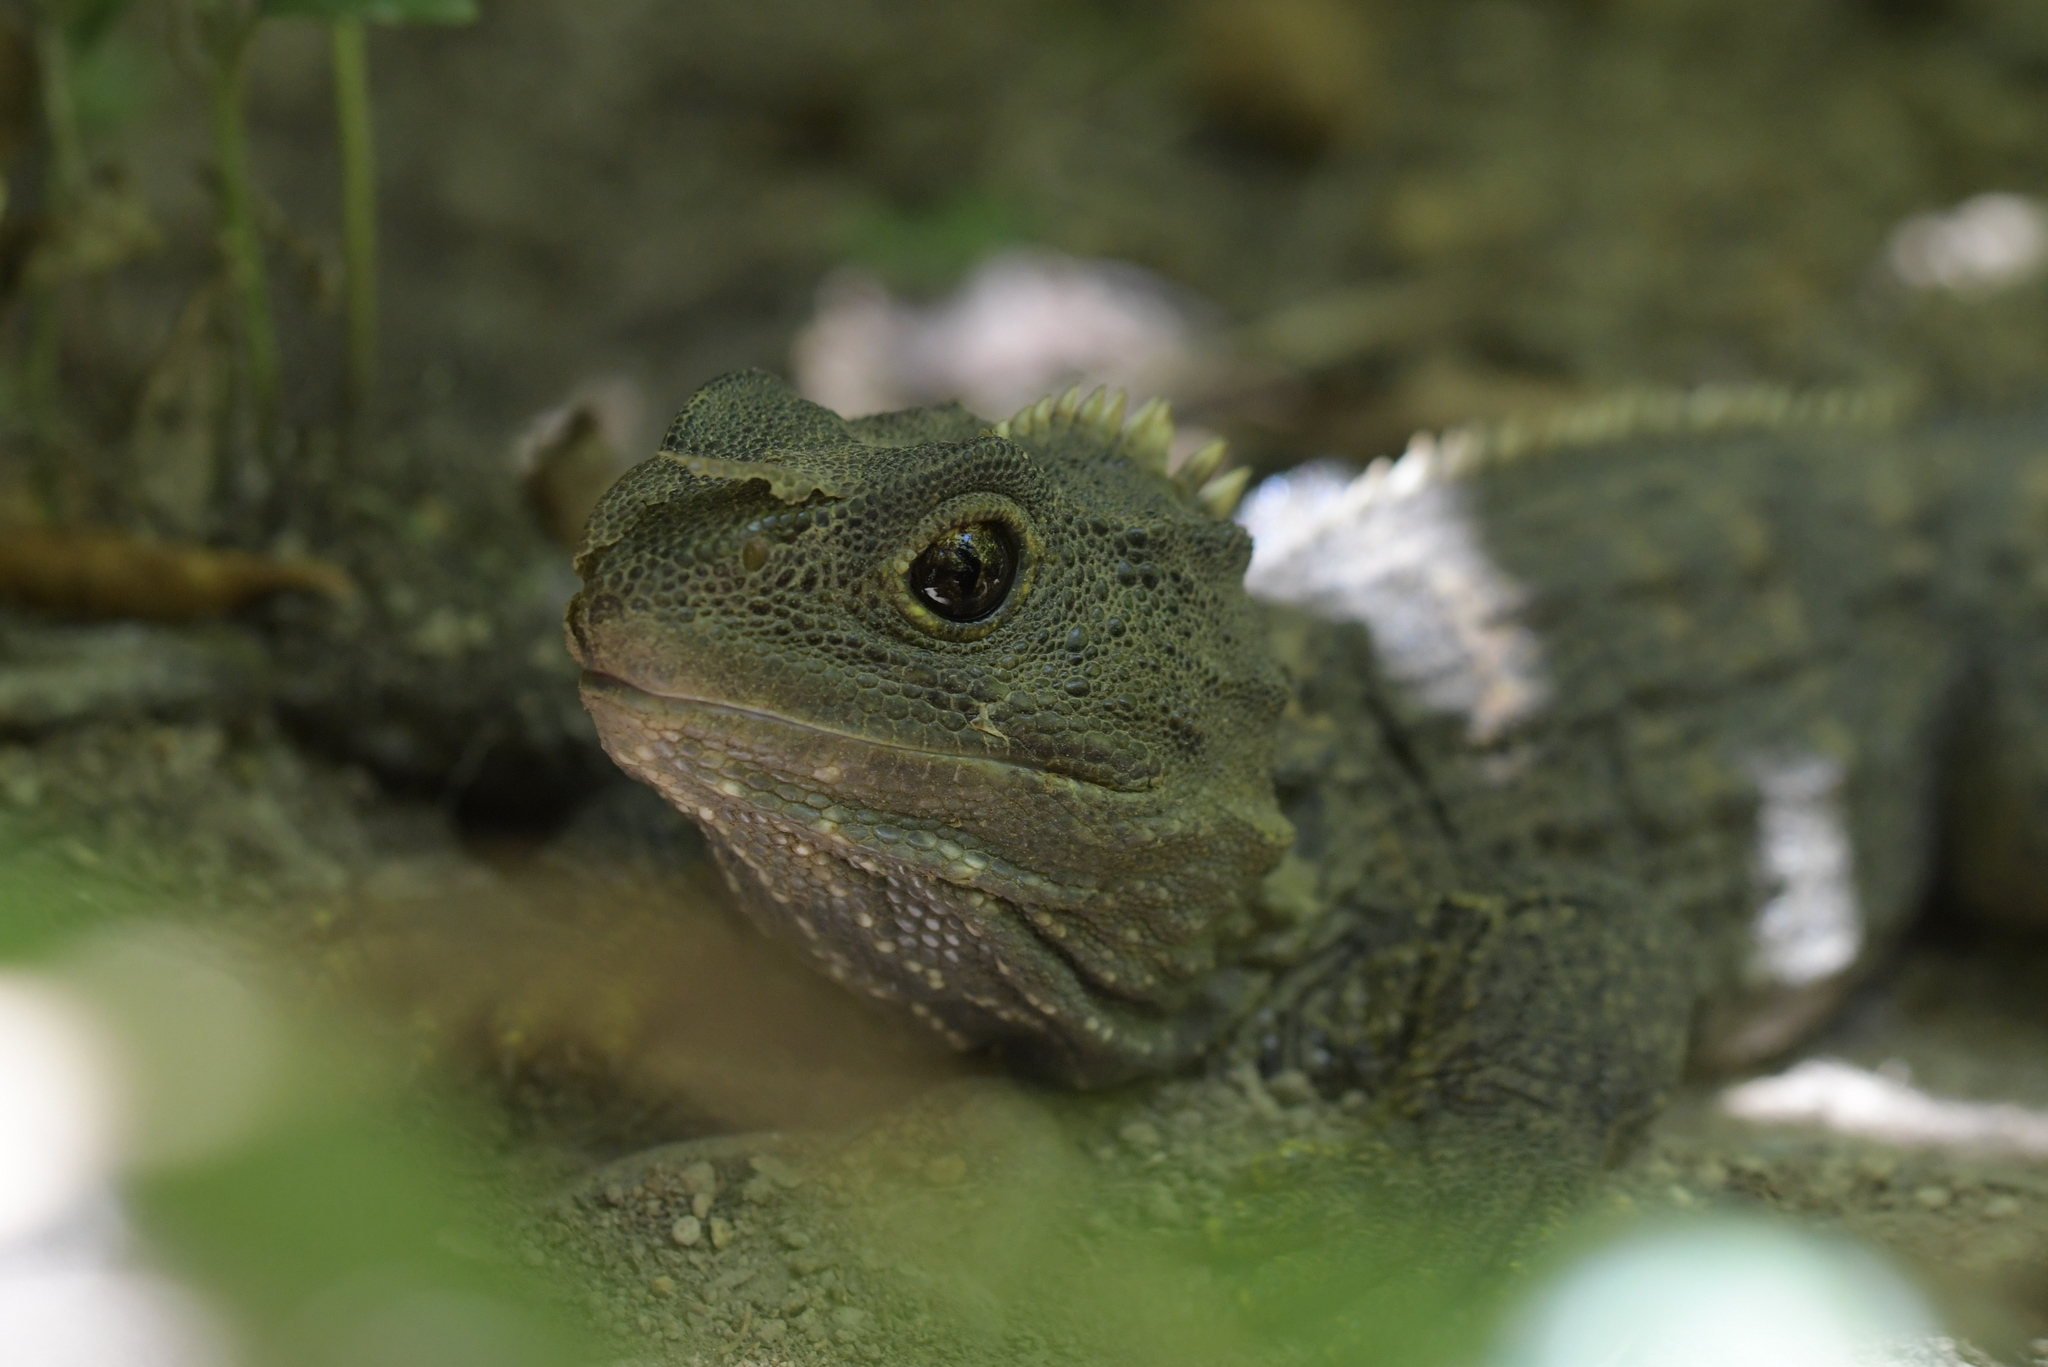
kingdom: Animalia
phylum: Chordata
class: Sphenodontia
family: Sphenodontidae
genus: Sphenodon
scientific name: Sphenodon punctatus
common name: Tuatara
